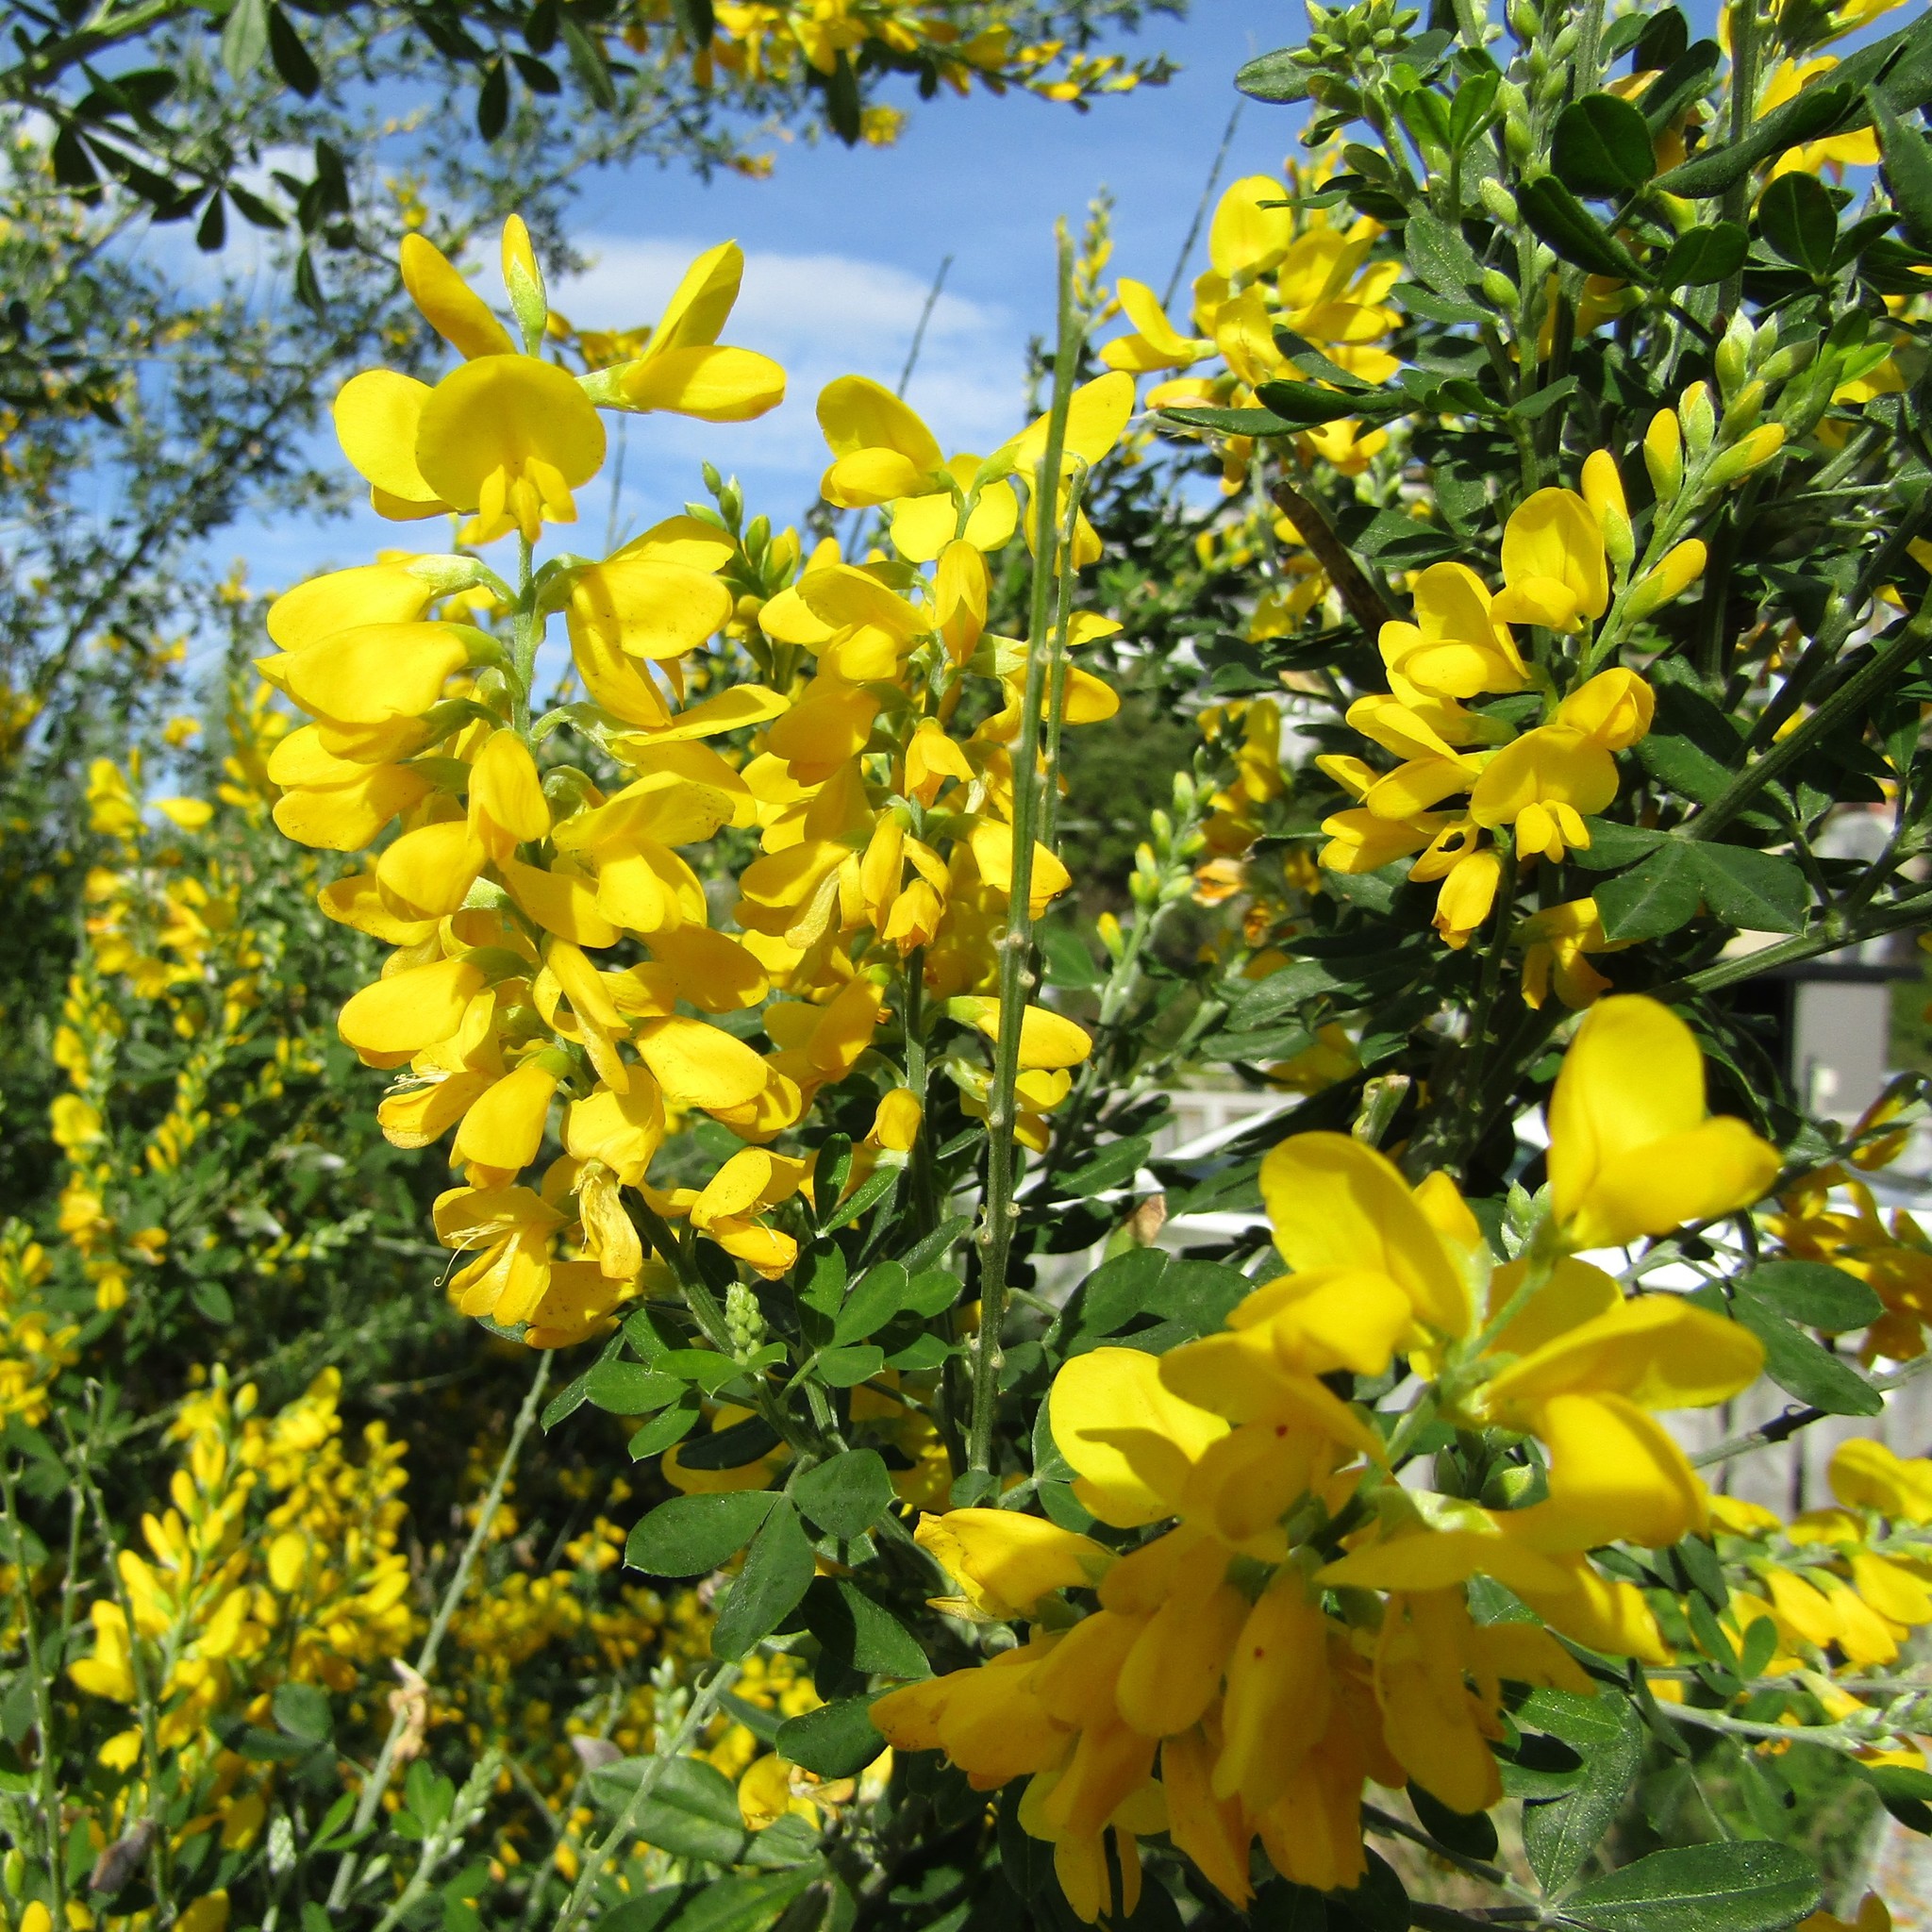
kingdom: Plantae
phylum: Tracheophyta
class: Magnoliopsida
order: Fabales
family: Fabaceae
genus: Genista
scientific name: Genista stenopetala
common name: Leafy broom
